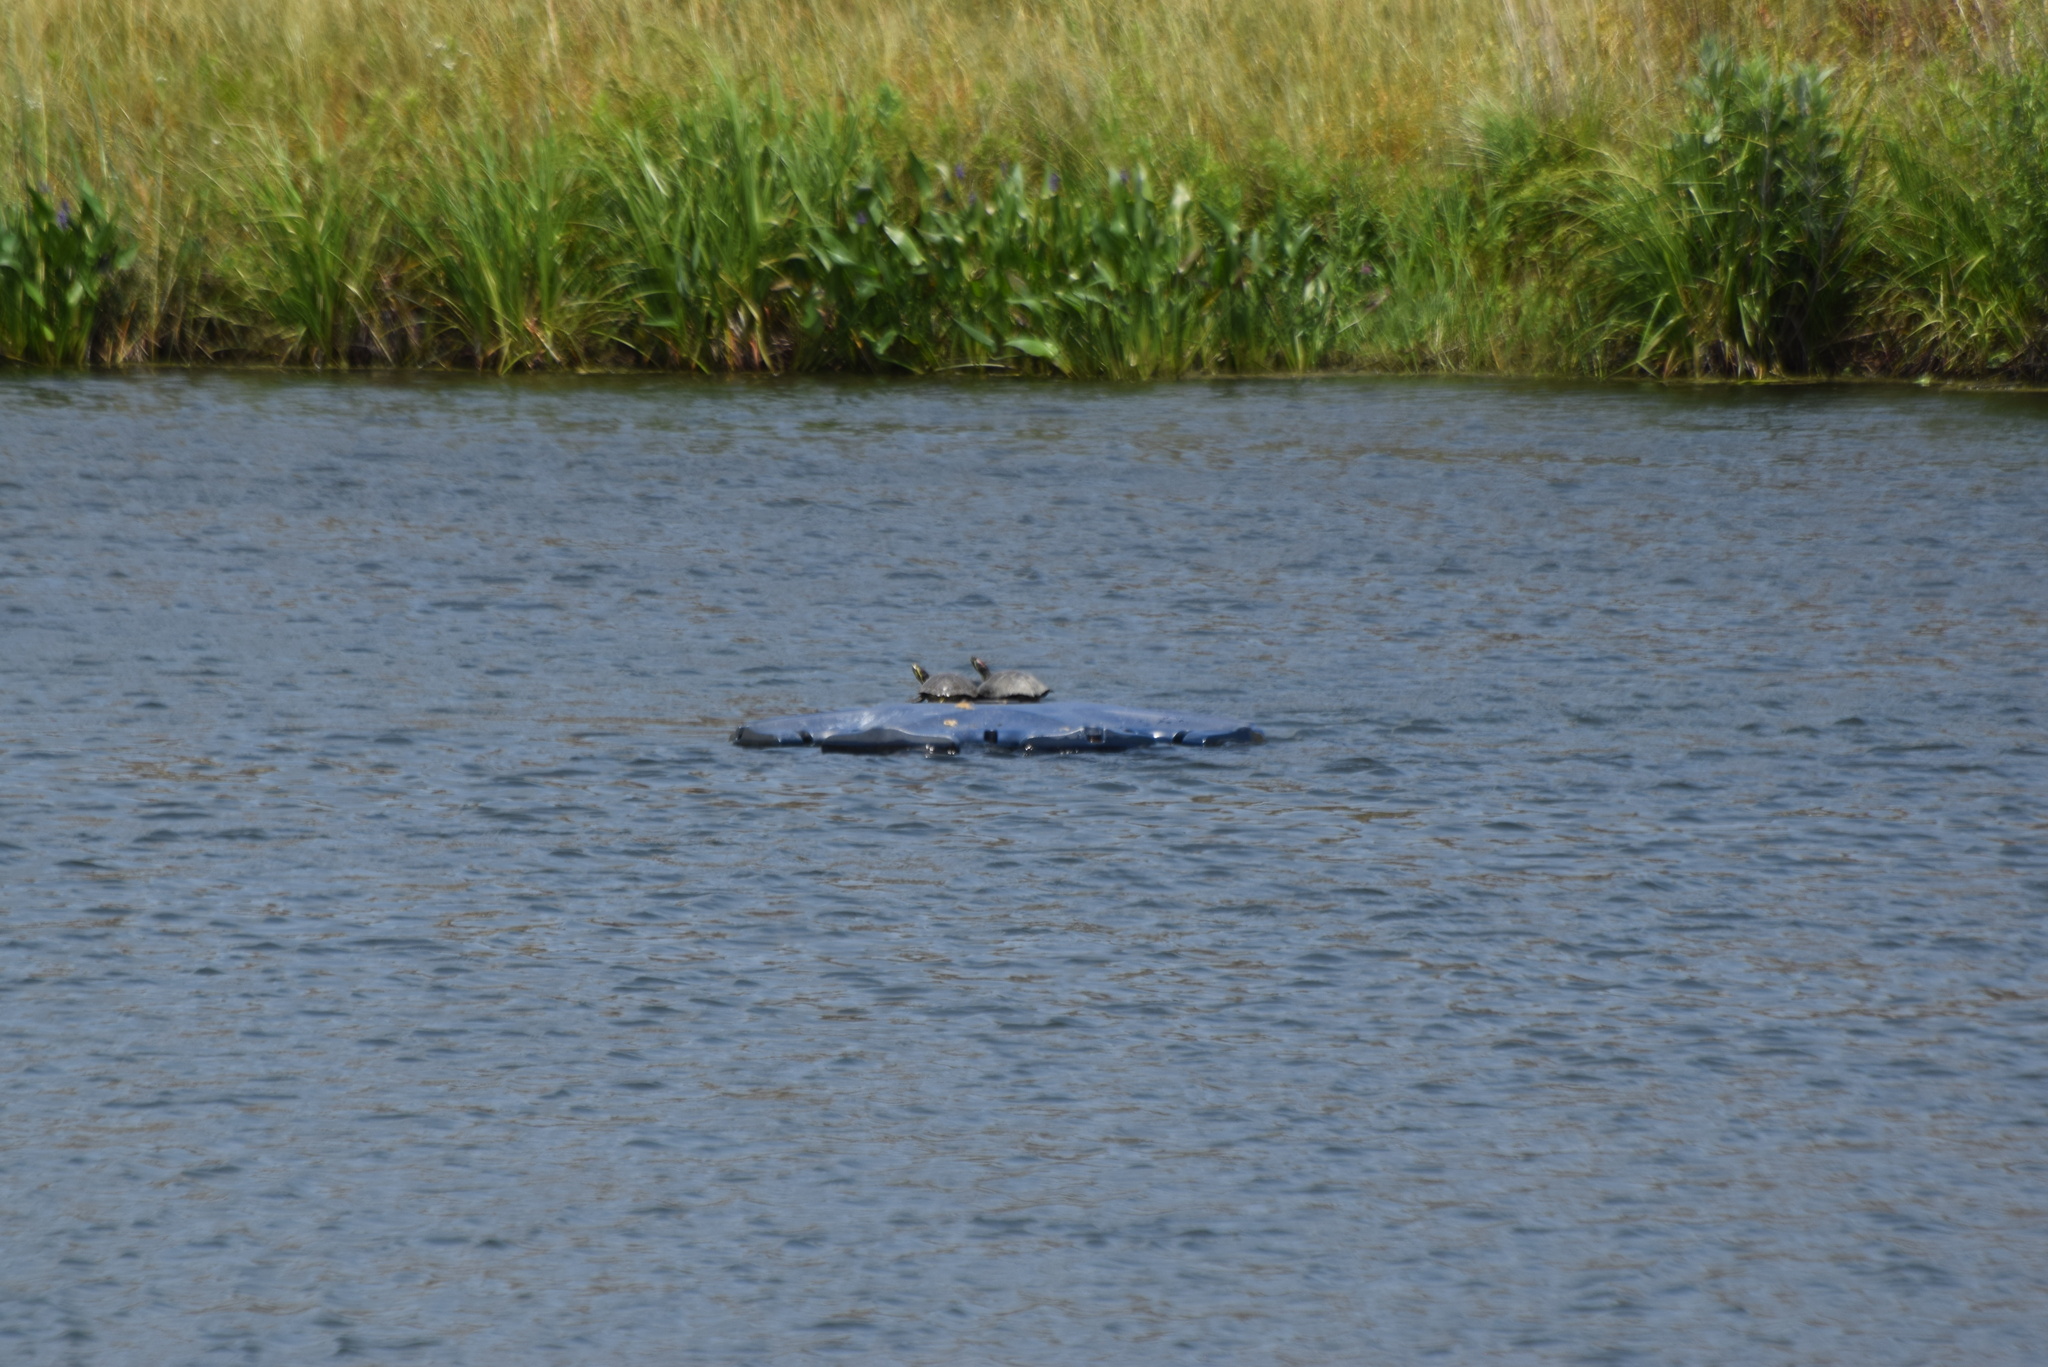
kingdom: Animalia
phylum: Chordata
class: Testudines
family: Emydidae
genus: Trachemys
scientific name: Trachemys scripta
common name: Slider
